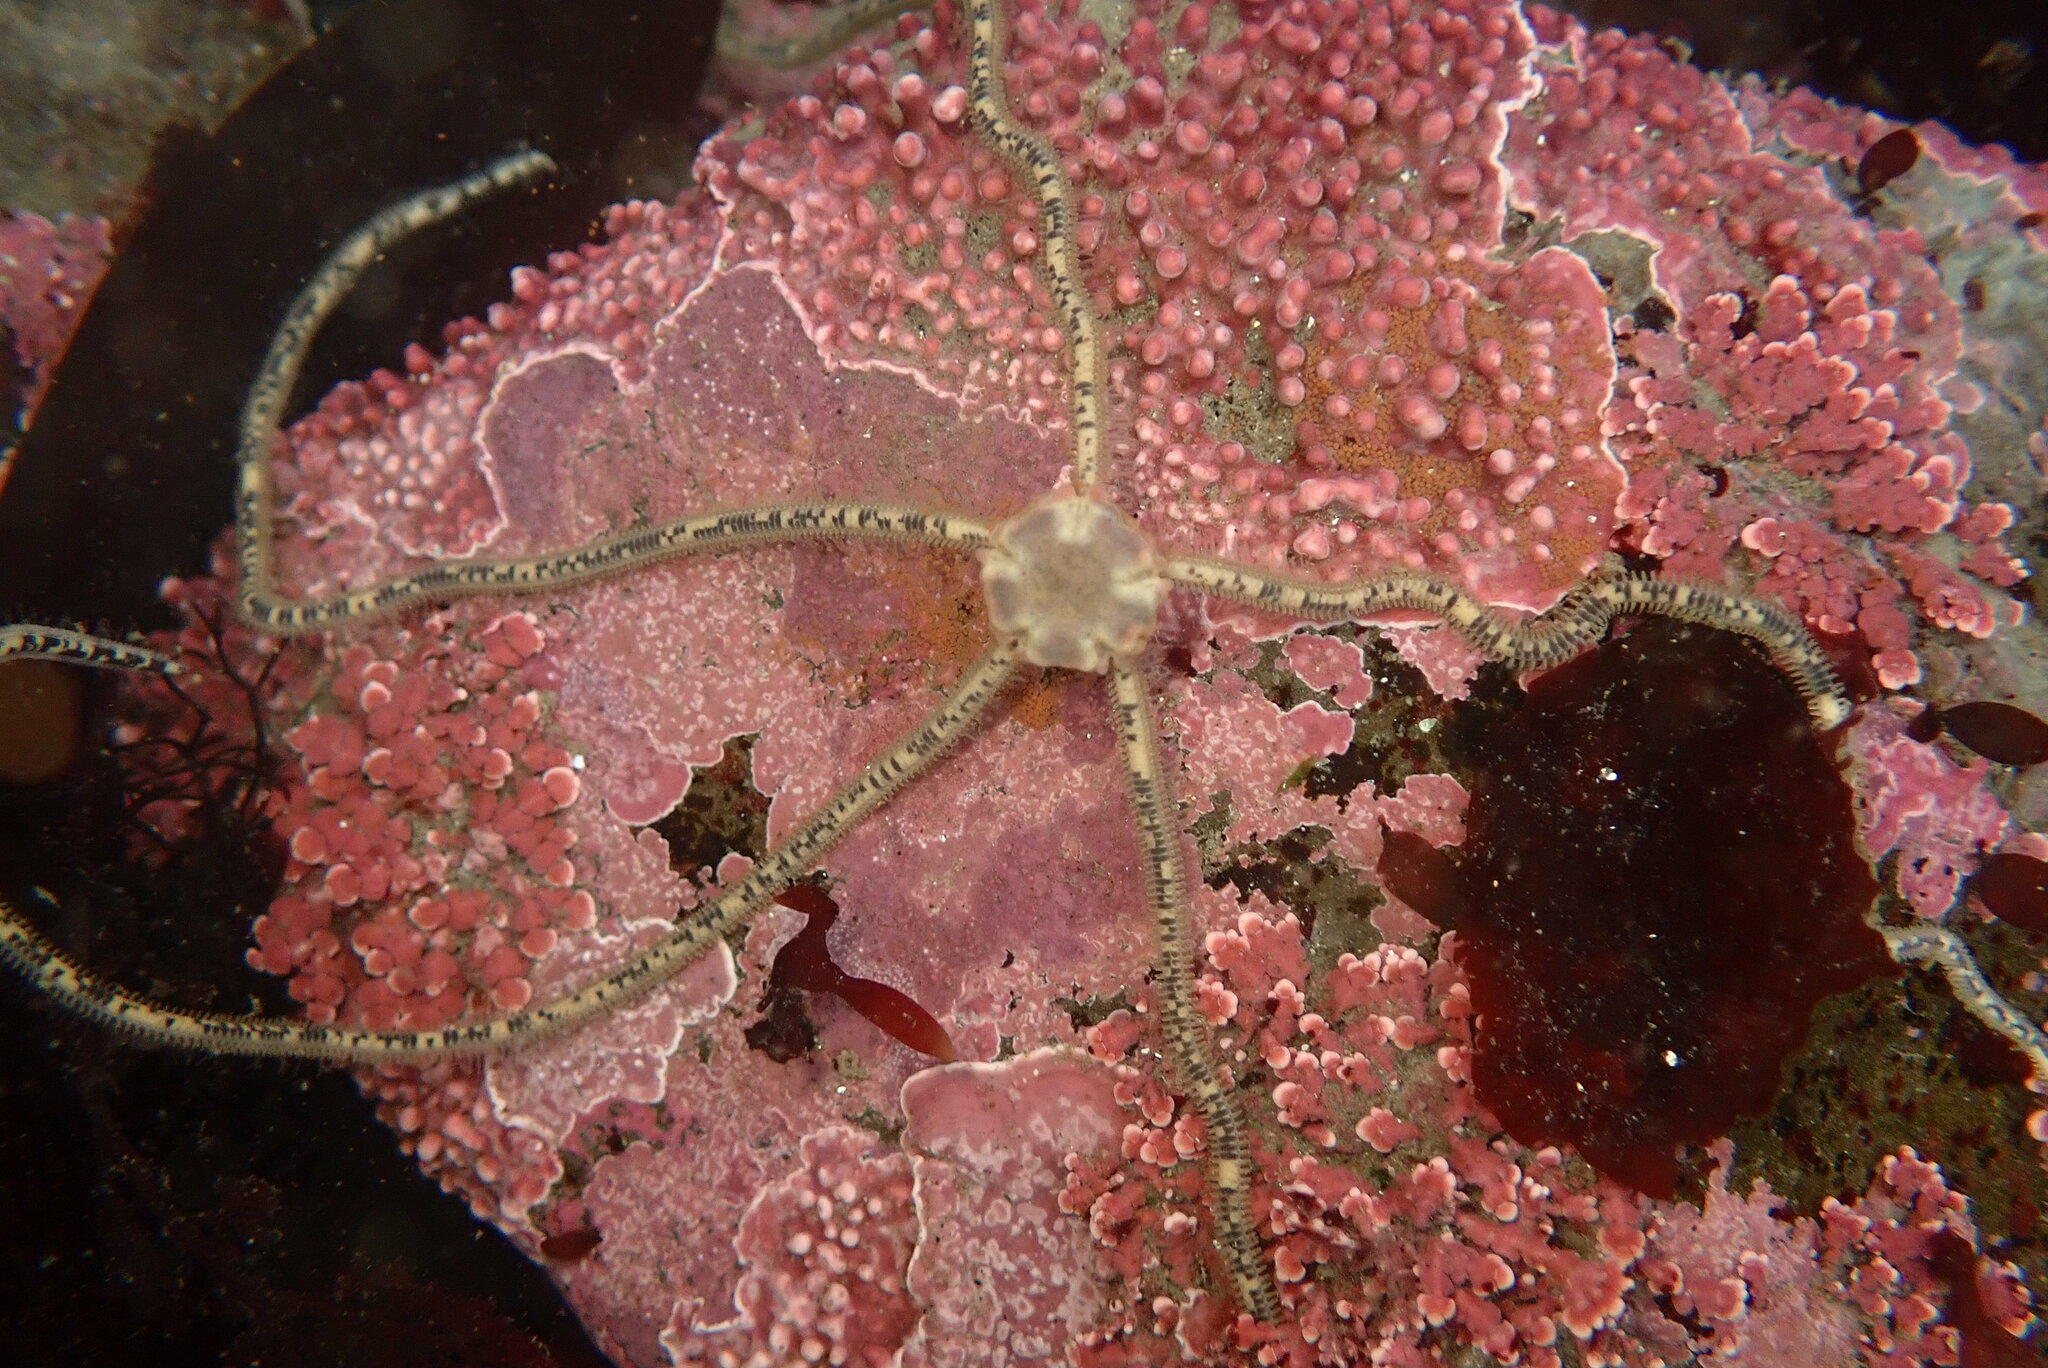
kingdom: Animalia
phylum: Echinodermata
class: Ophiuroidea
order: Amphilepidida
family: Amphiuridae
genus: Amphiodia
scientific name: Amphiodia occidentalis
